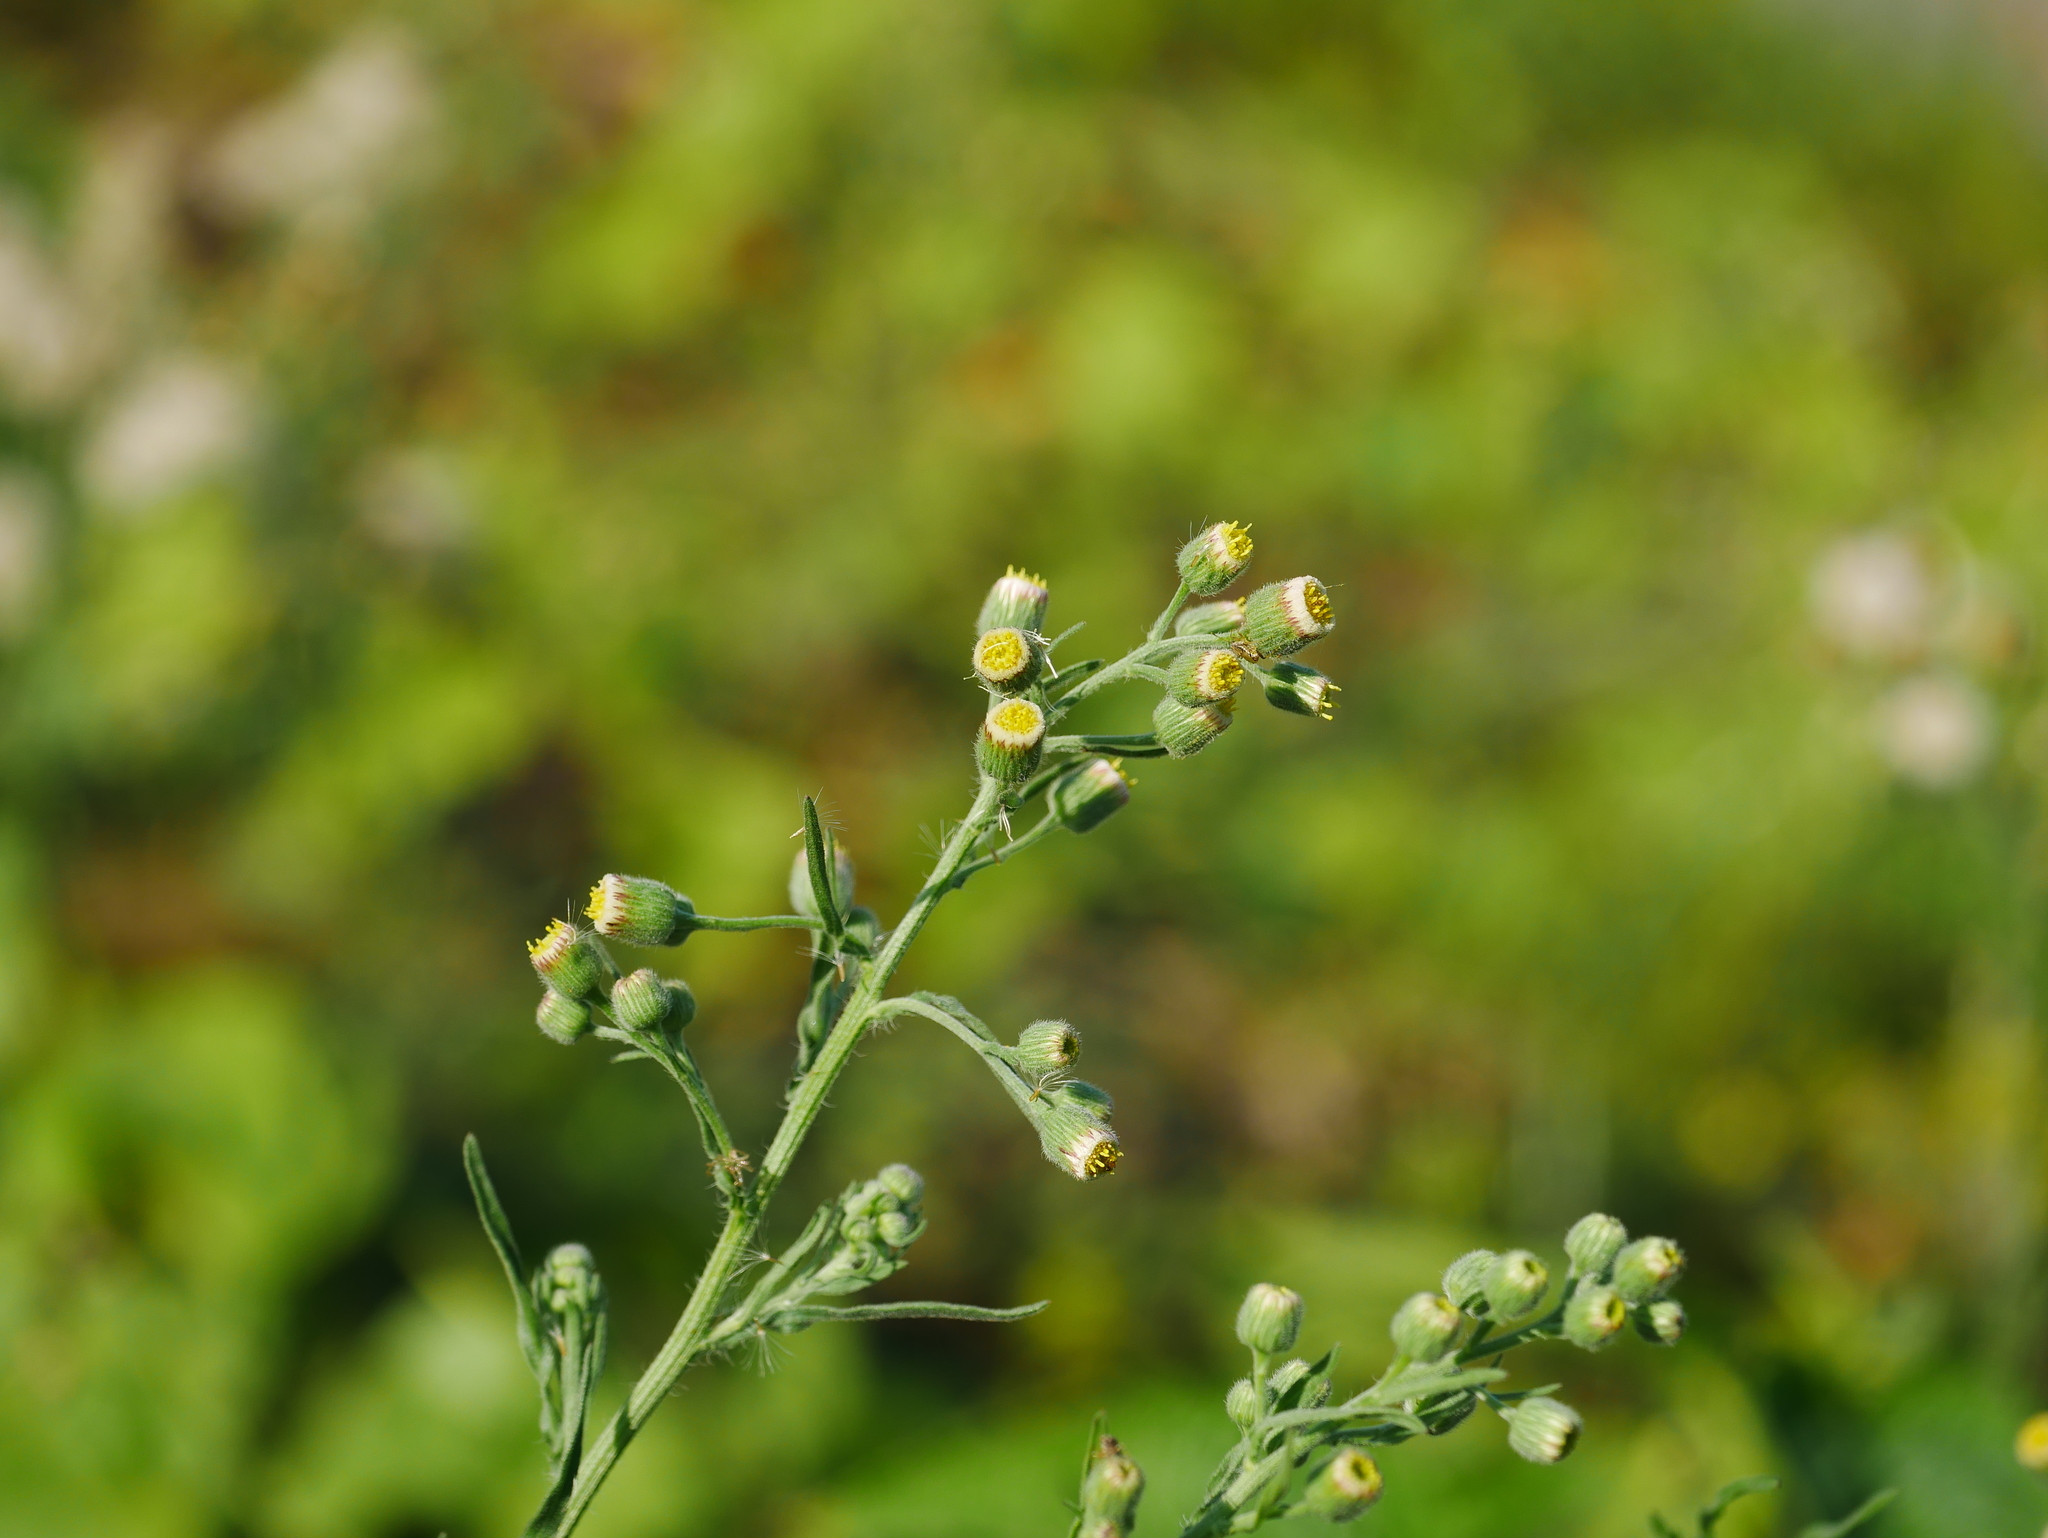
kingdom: Plantae
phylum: Tracheophyta
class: Magnoliopsida
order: Asterales
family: Asteraceae
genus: Erigeron
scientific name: Erigeron bonariensis
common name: Argentine fleabane
